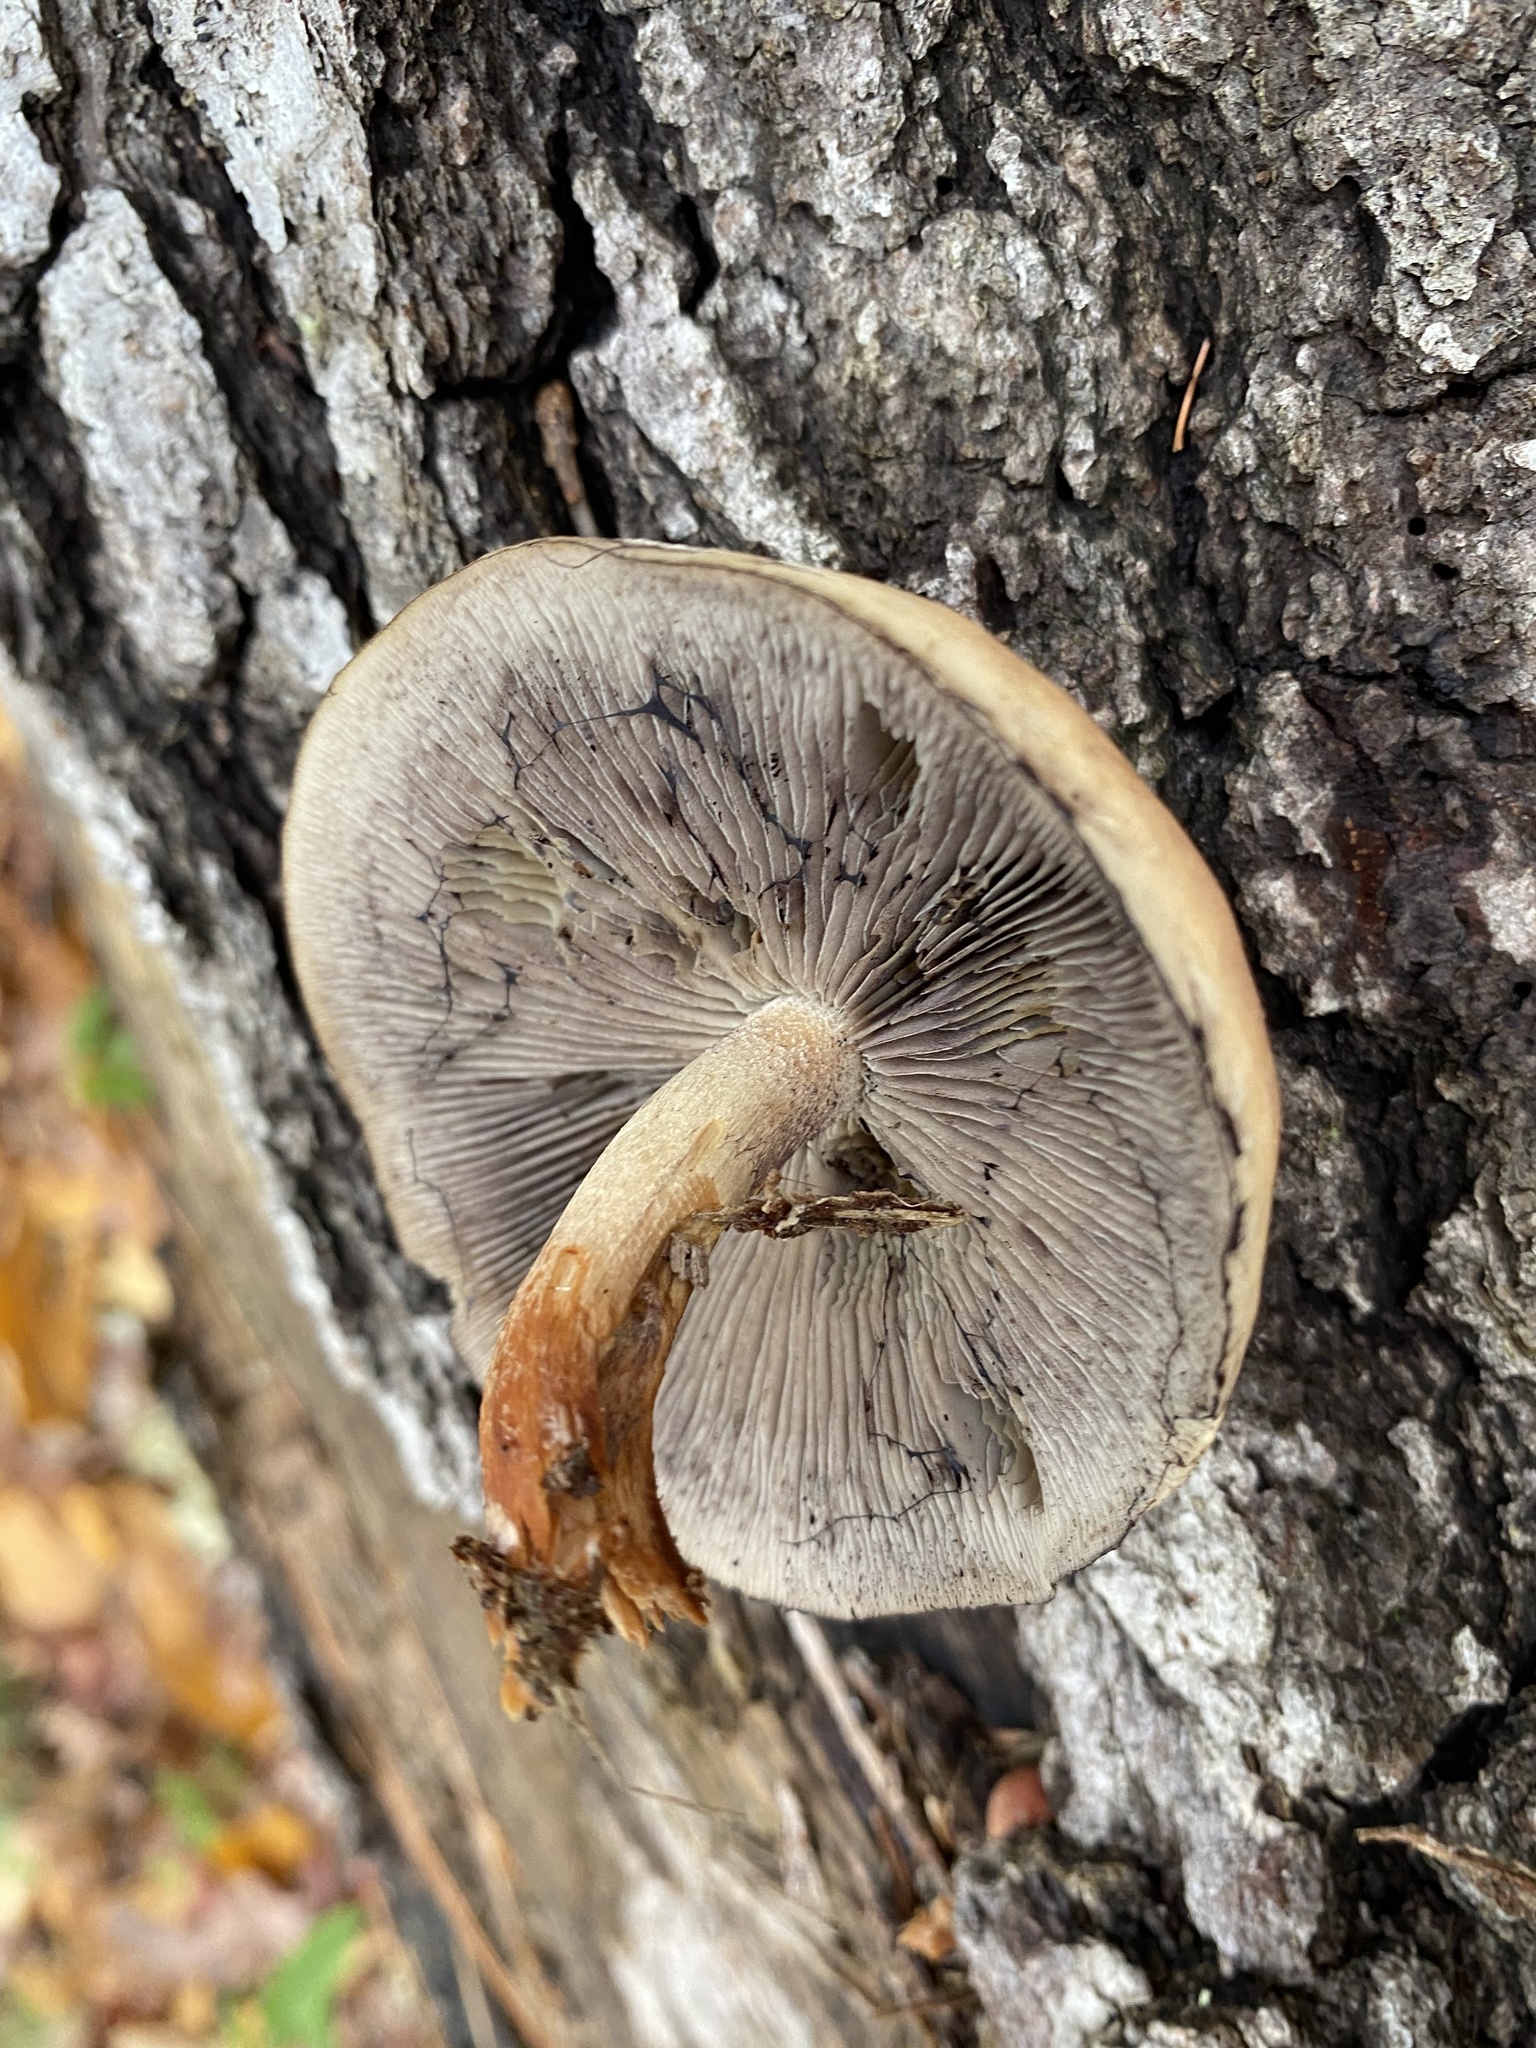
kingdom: Fungi
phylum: Basidiomycota
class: Agaricomycetes
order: Agaricales
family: Strophariaceae
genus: Hypholoma
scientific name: Hypholoma lateritium
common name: Brick caps
